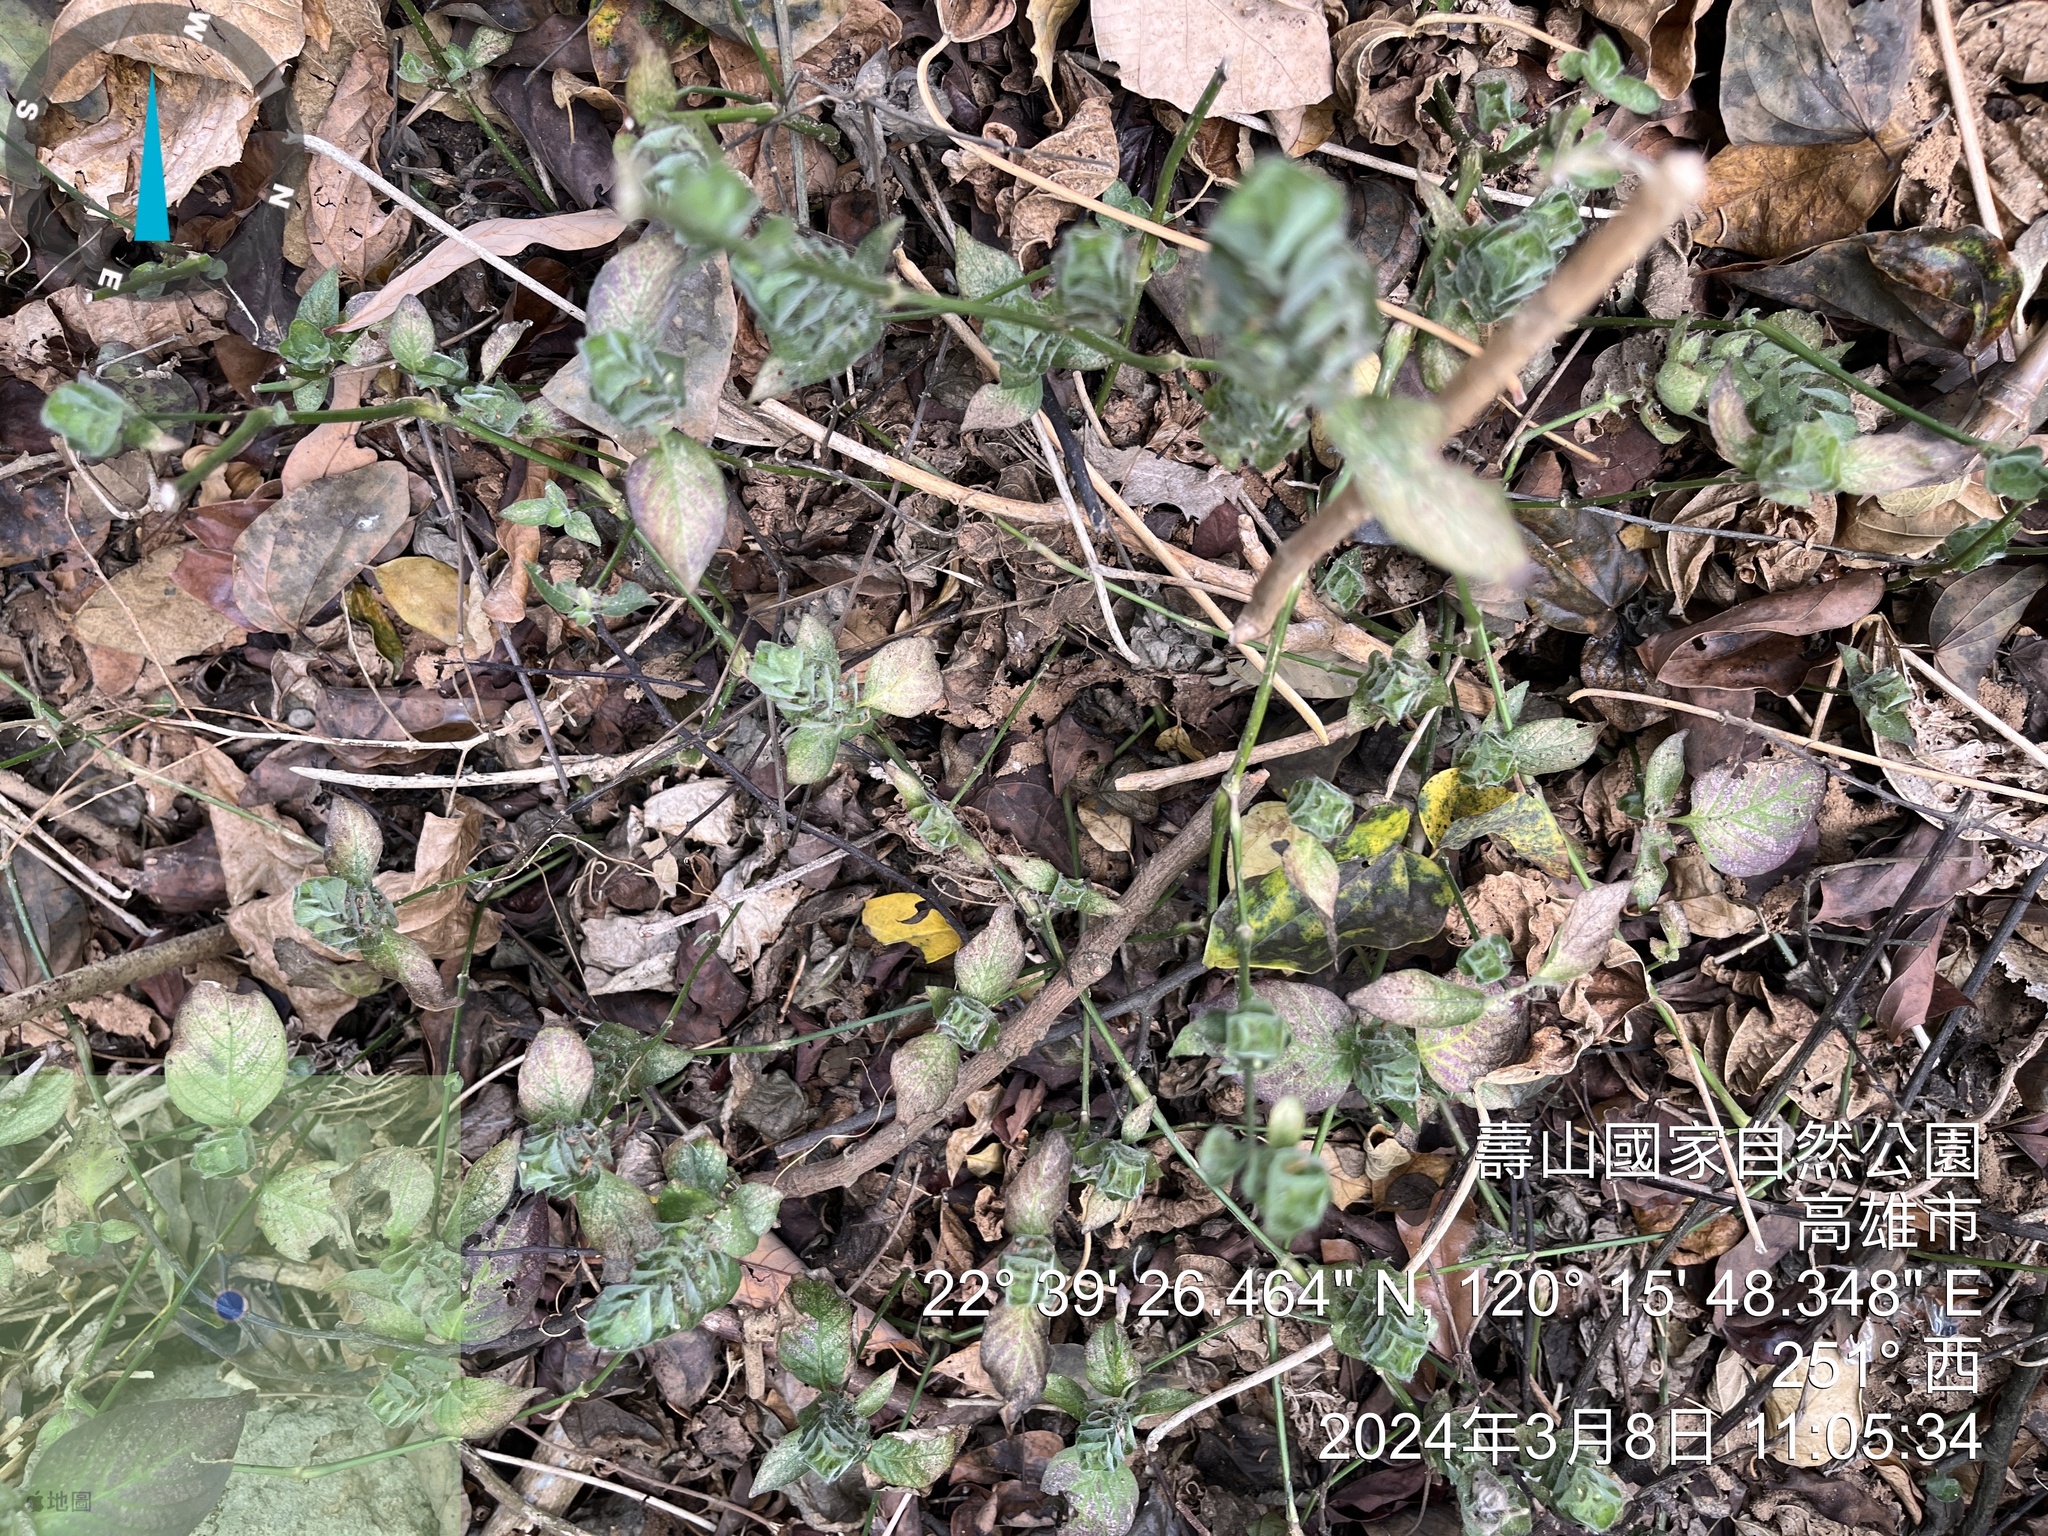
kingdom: Plantae
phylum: Tracheophyta
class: Magnoliopsida
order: Lamiales
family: Acanthaceae
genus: Ruellia
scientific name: Ruellia blechum
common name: Browne's blechum
